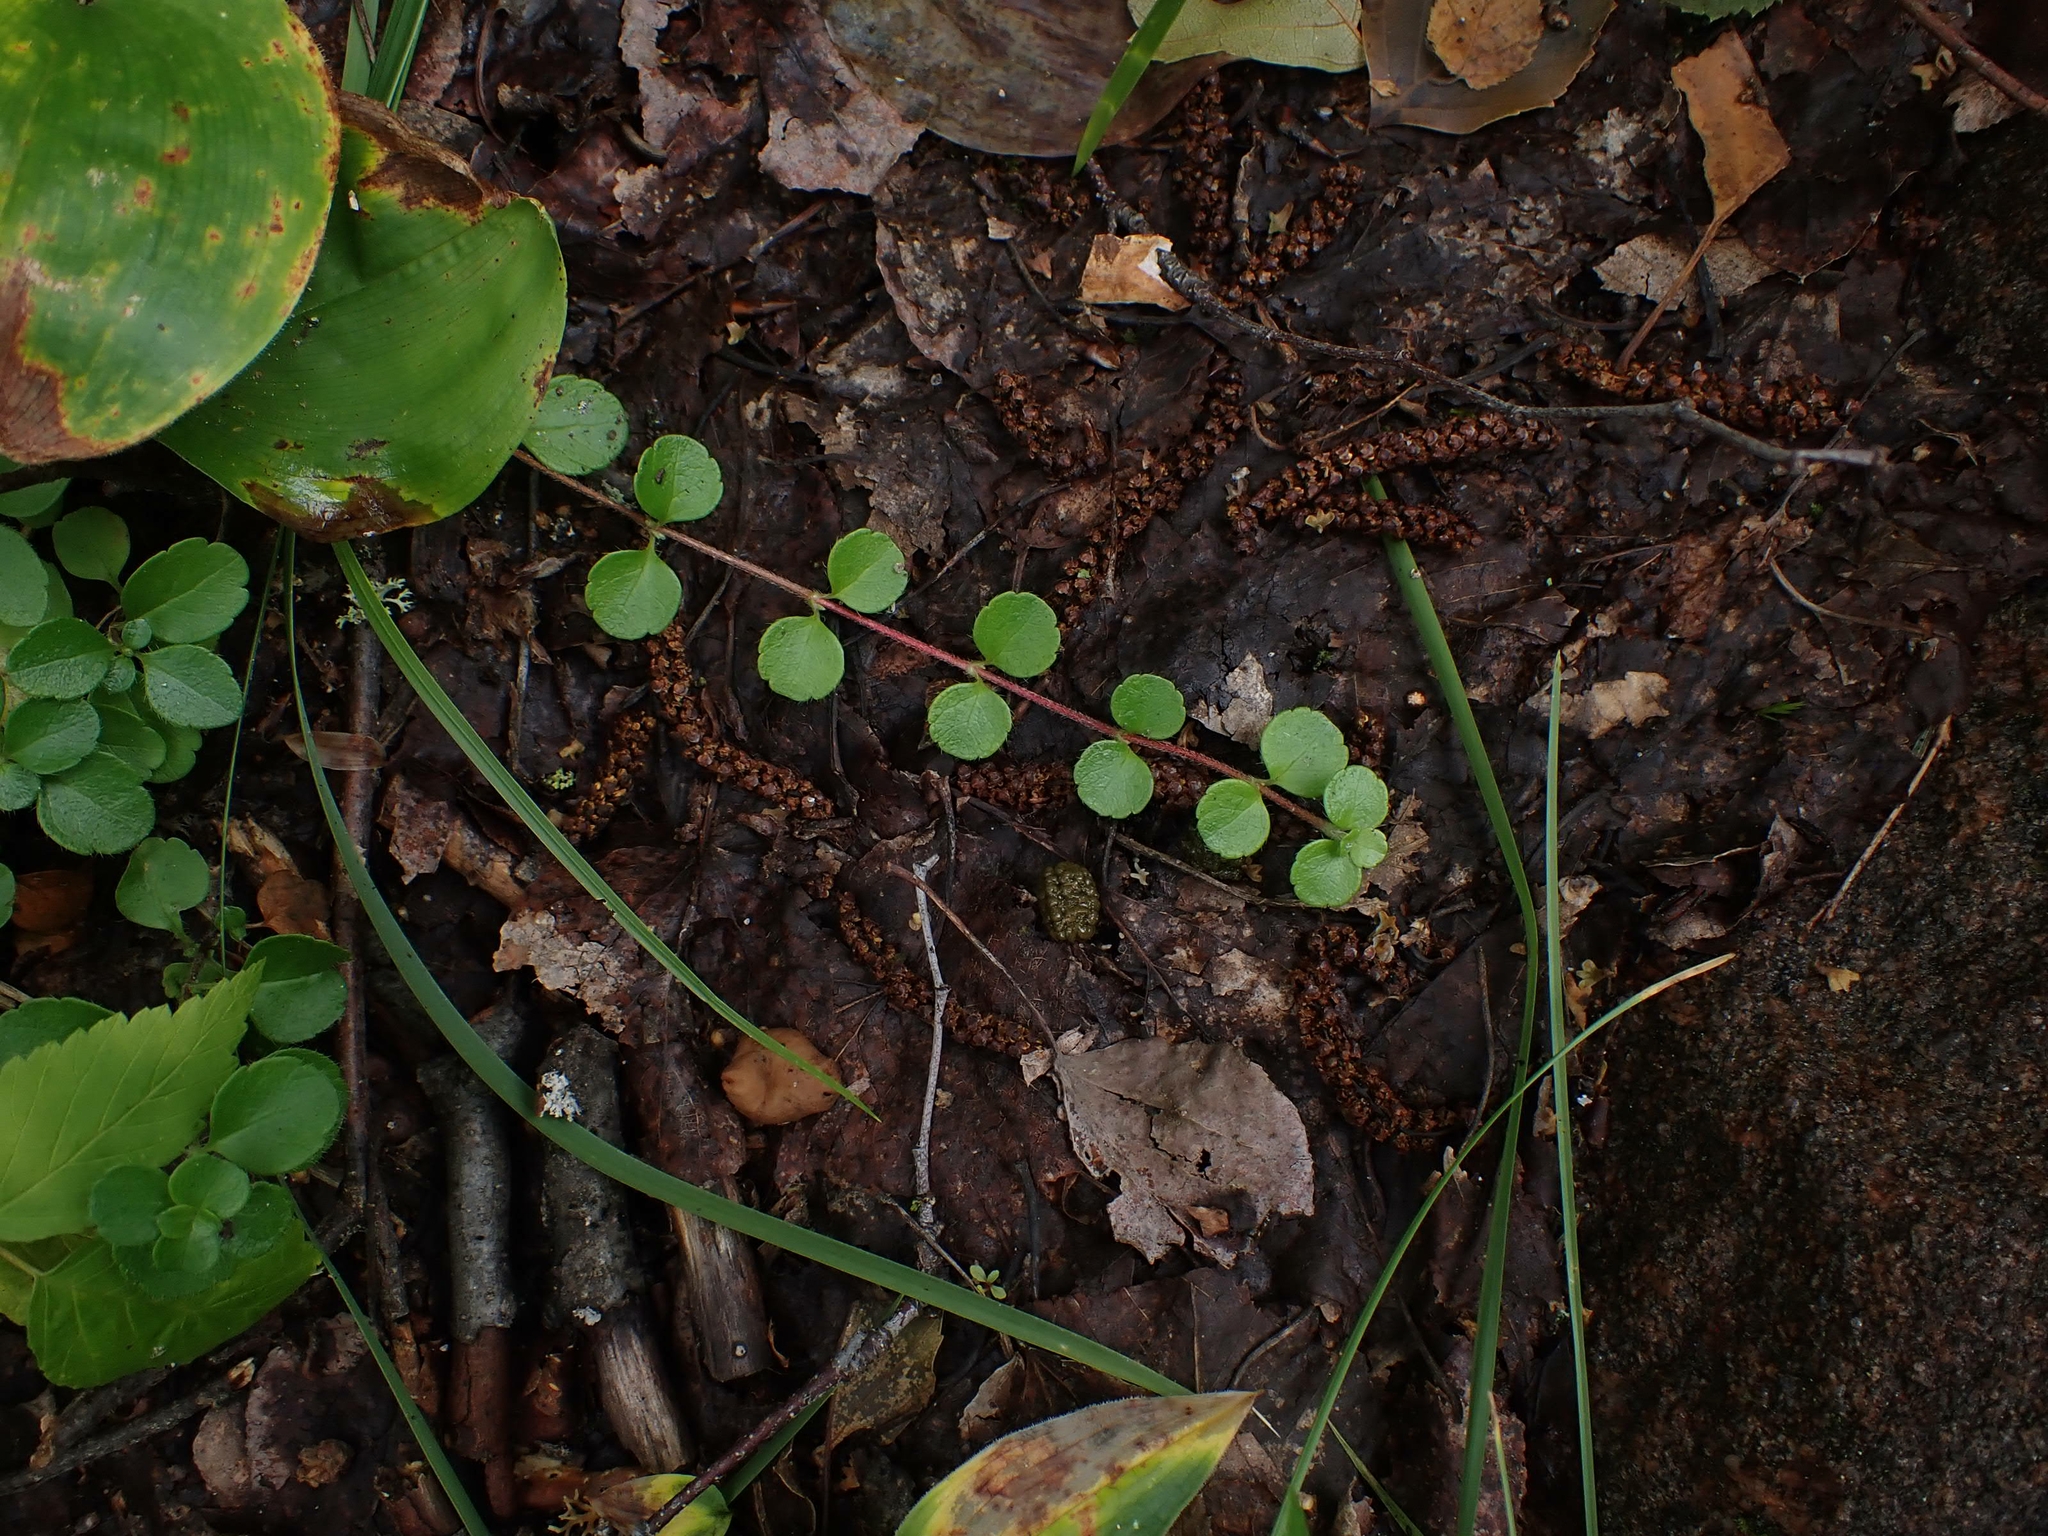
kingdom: Plantae
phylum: Tracheophyta
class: Magnoliopsida
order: Dipsacales
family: Caprifoliaceae
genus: Linnaea
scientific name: Linnaea borealis
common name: Twinflower
